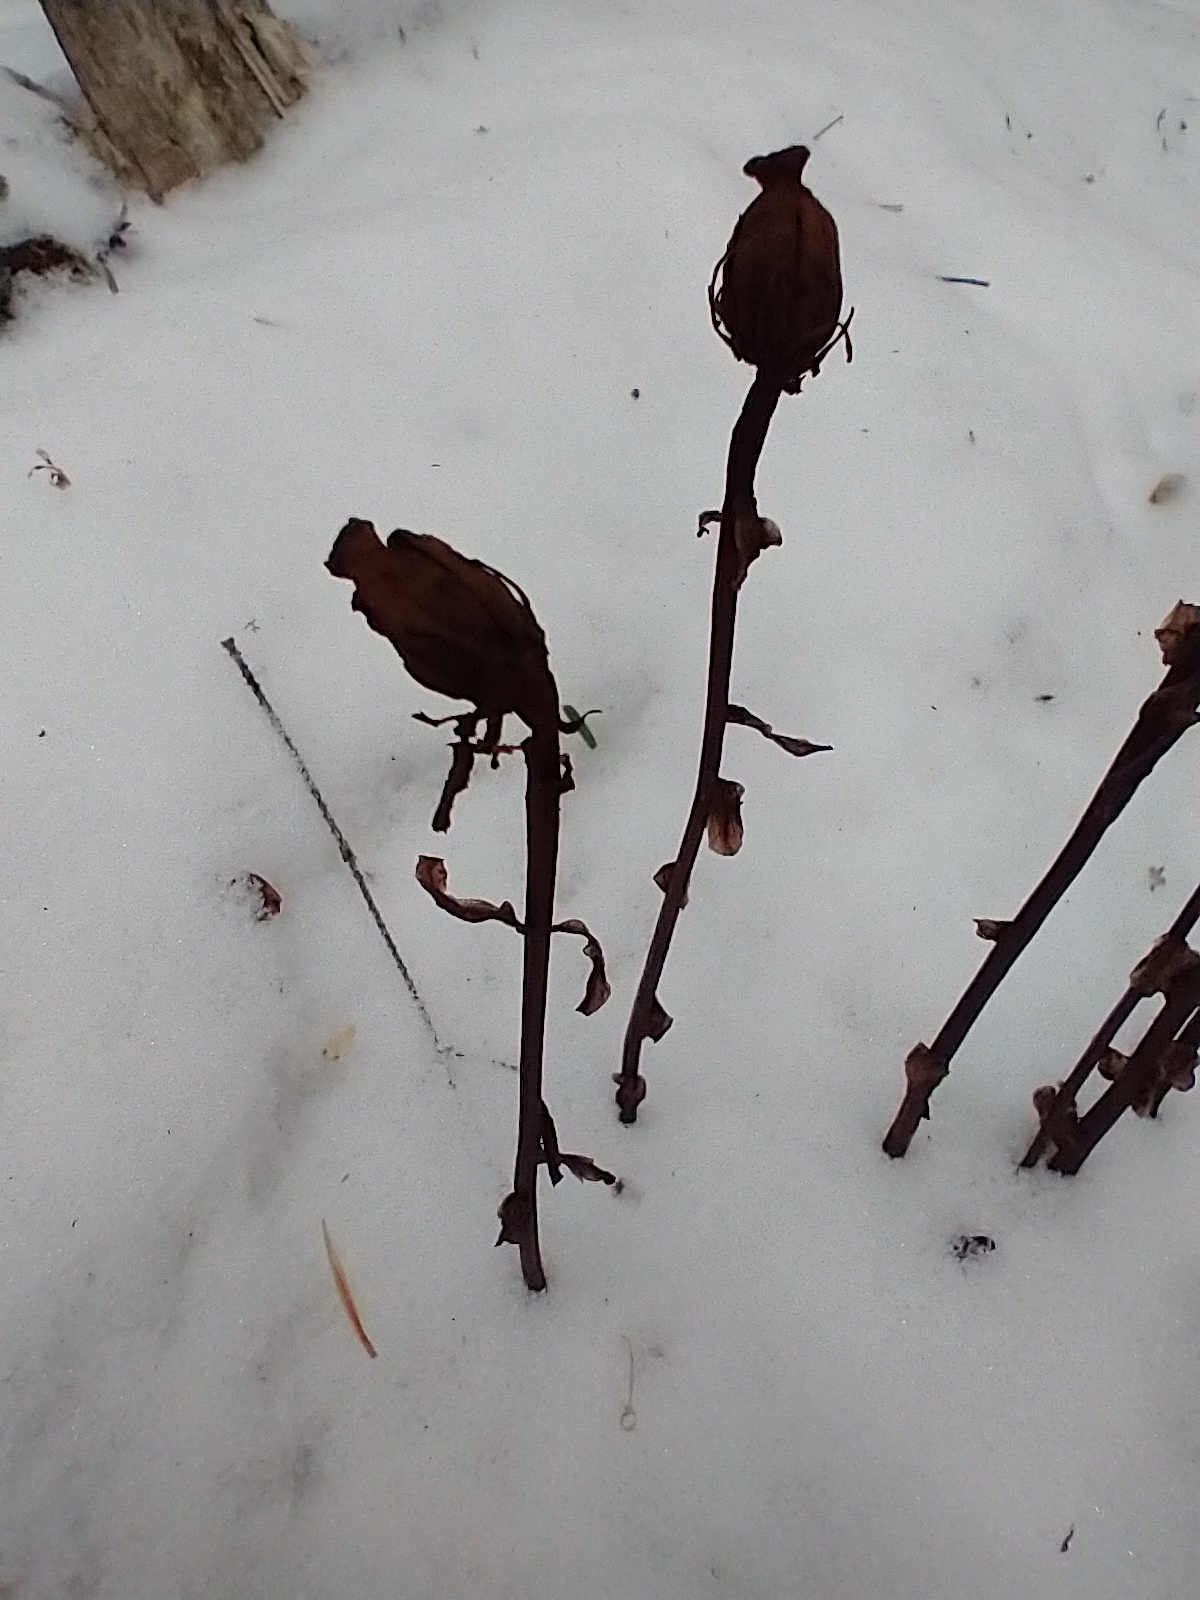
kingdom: Plantae
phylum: Tracheophyta
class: Magnoliopsida
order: Ericales
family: Ericaceae
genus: Monotropa
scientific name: Monotropa uniflora
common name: Convulsion root
